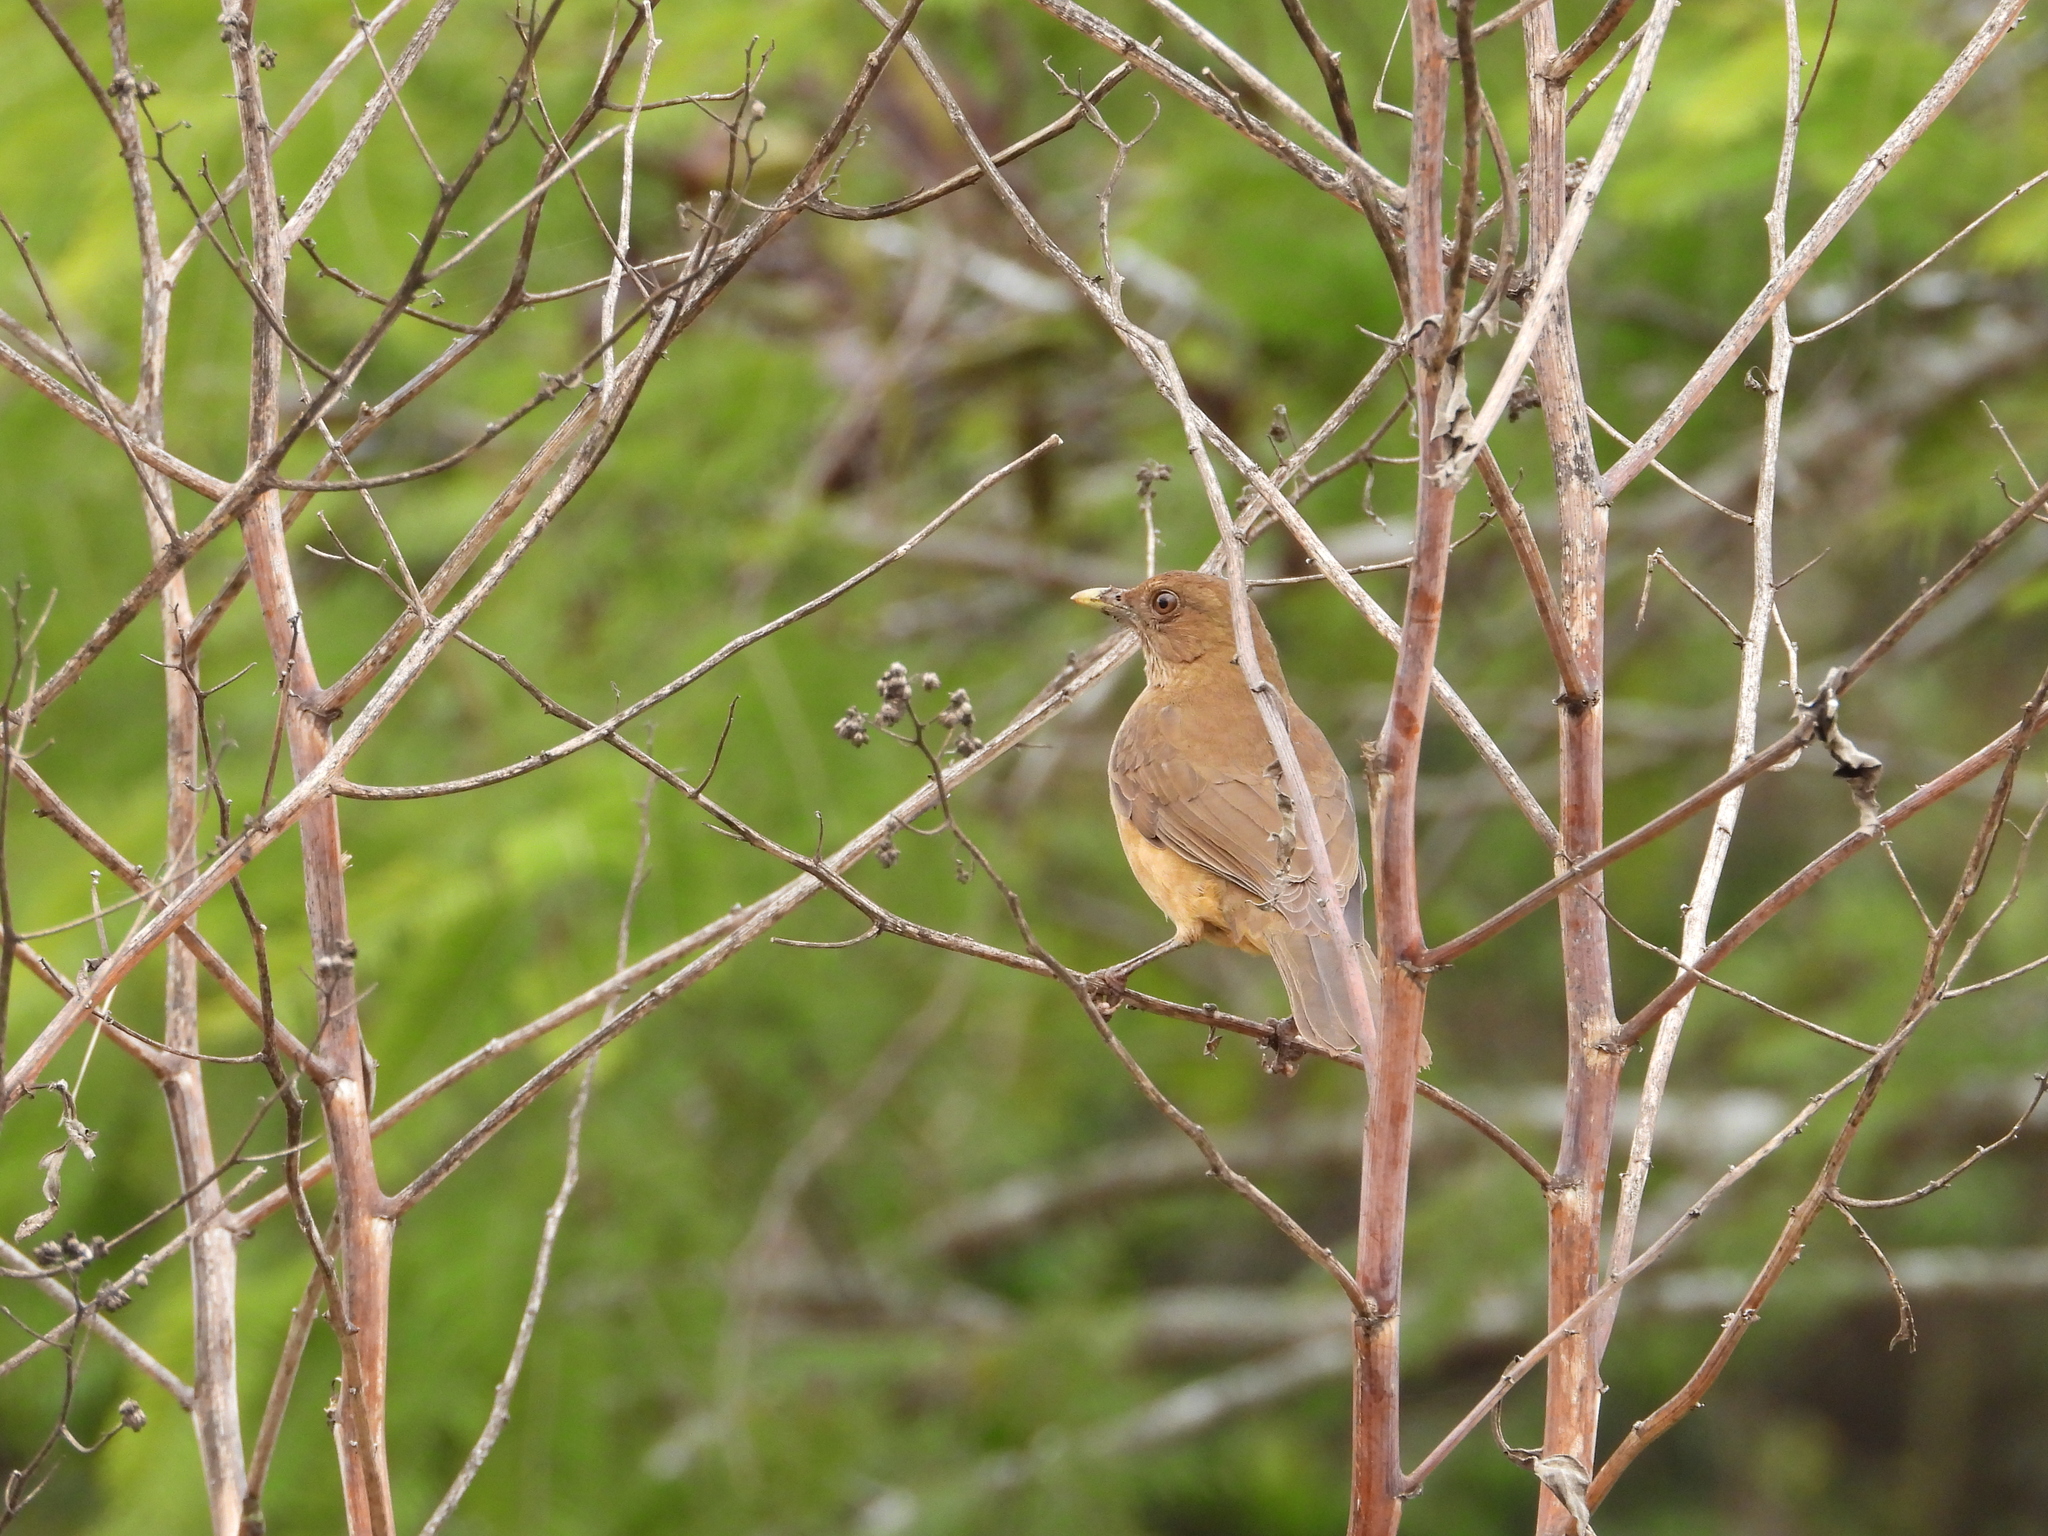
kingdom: Animalia
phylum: Chordata
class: Aves
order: Passeriformes
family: Turdidae
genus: Turdus
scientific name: Turdus grayi
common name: Clay-colored thrush
